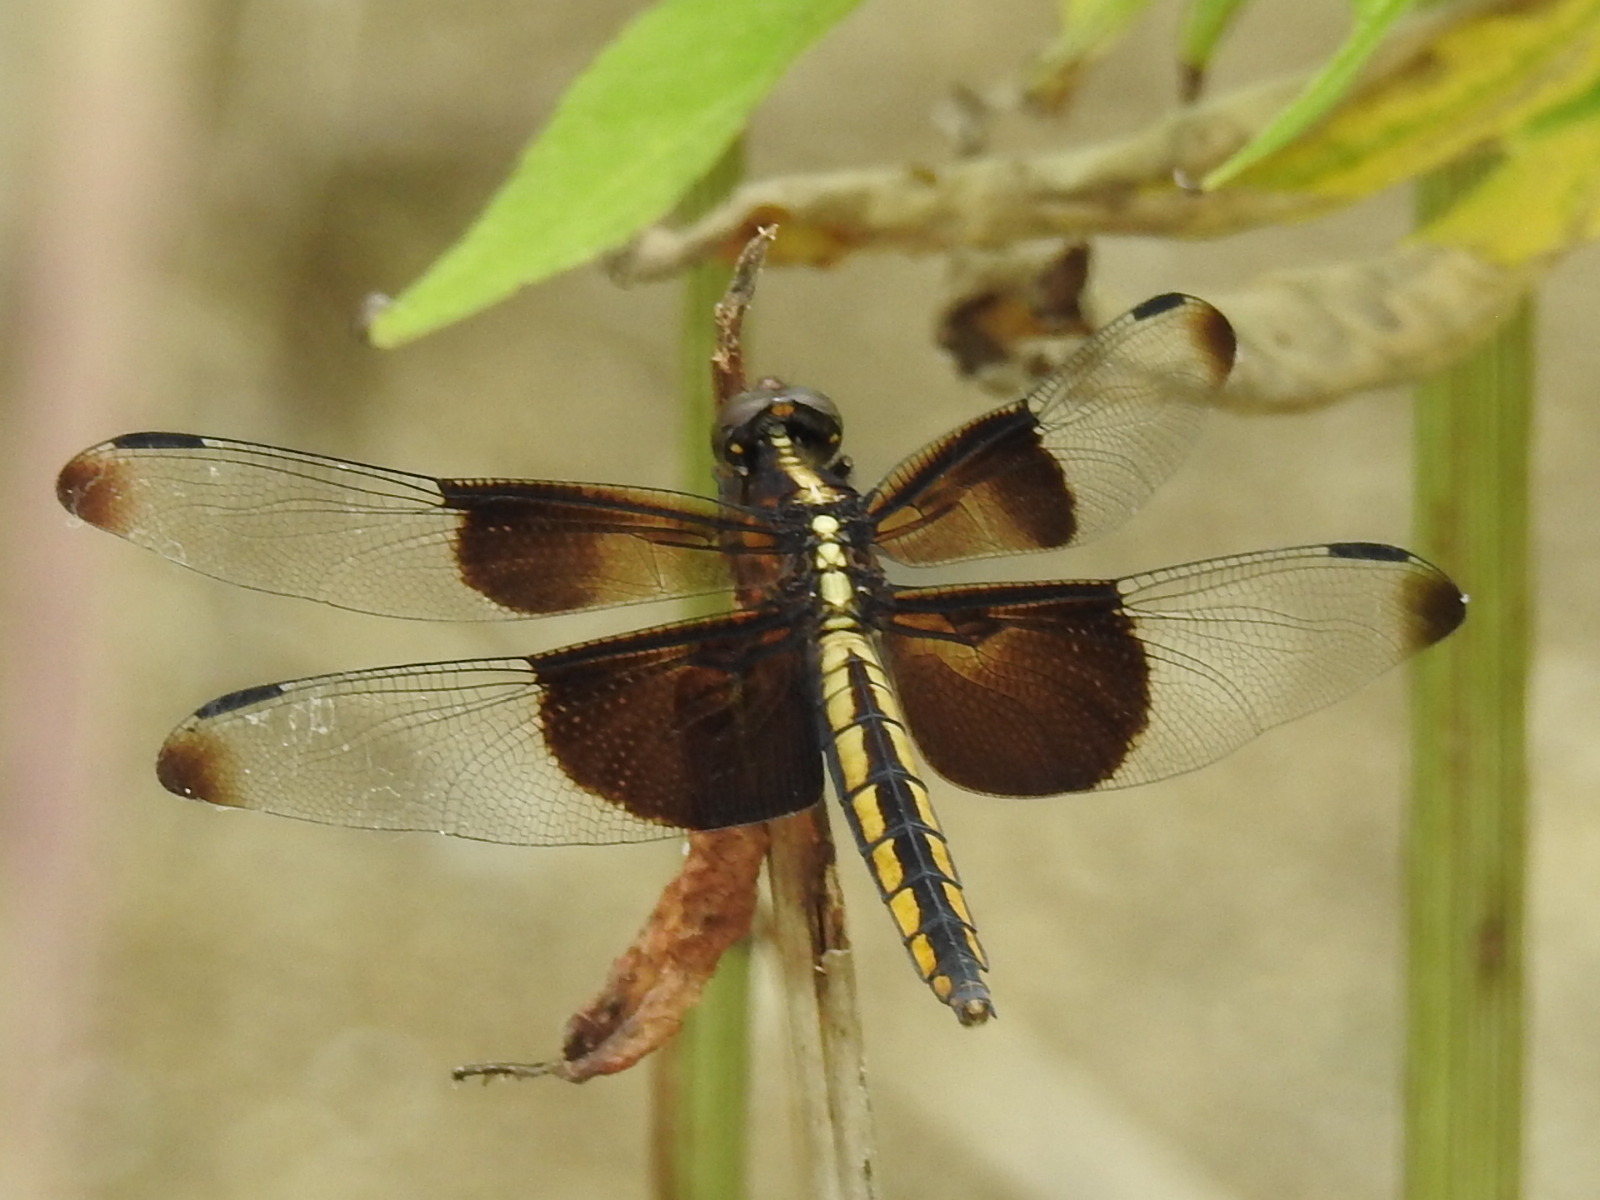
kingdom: Animalia
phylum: Arthropoda
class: Insecta
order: Odonata
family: Libellulidae
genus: Libellula
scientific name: Libellula luctuosa
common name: Widow skimmer
